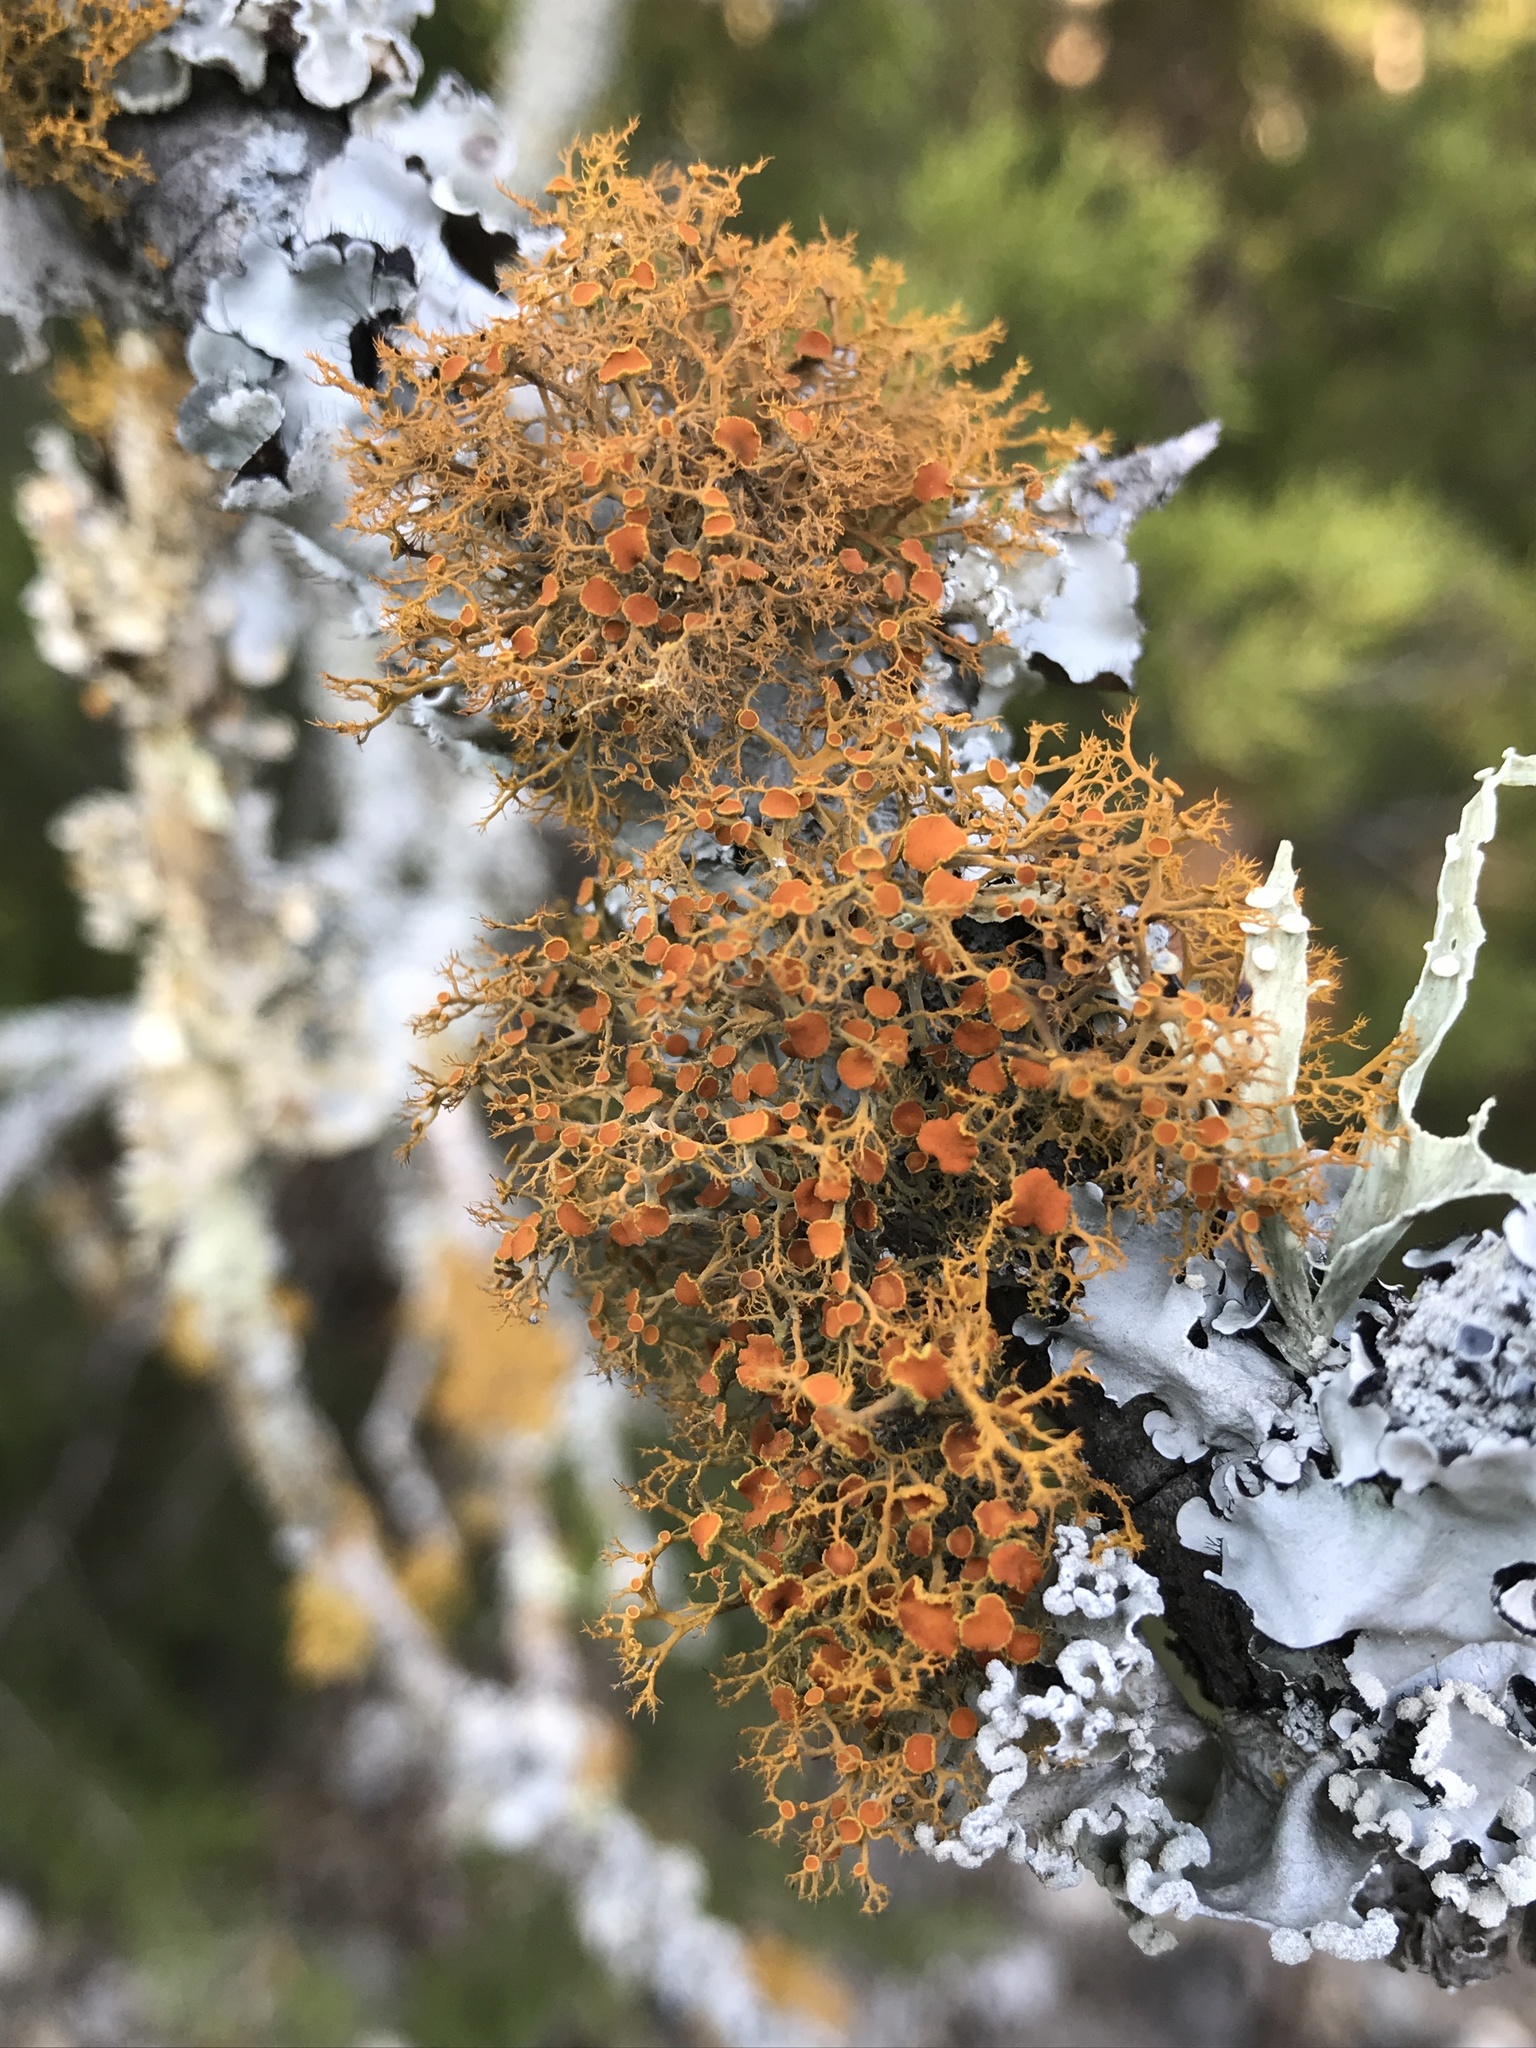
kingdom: Fungi
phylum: Ascomycota
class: Lecanoromycetes
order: Teloschistales
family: Teloschistaceae
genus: Teloschistes
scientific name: Teloschistes exilis
